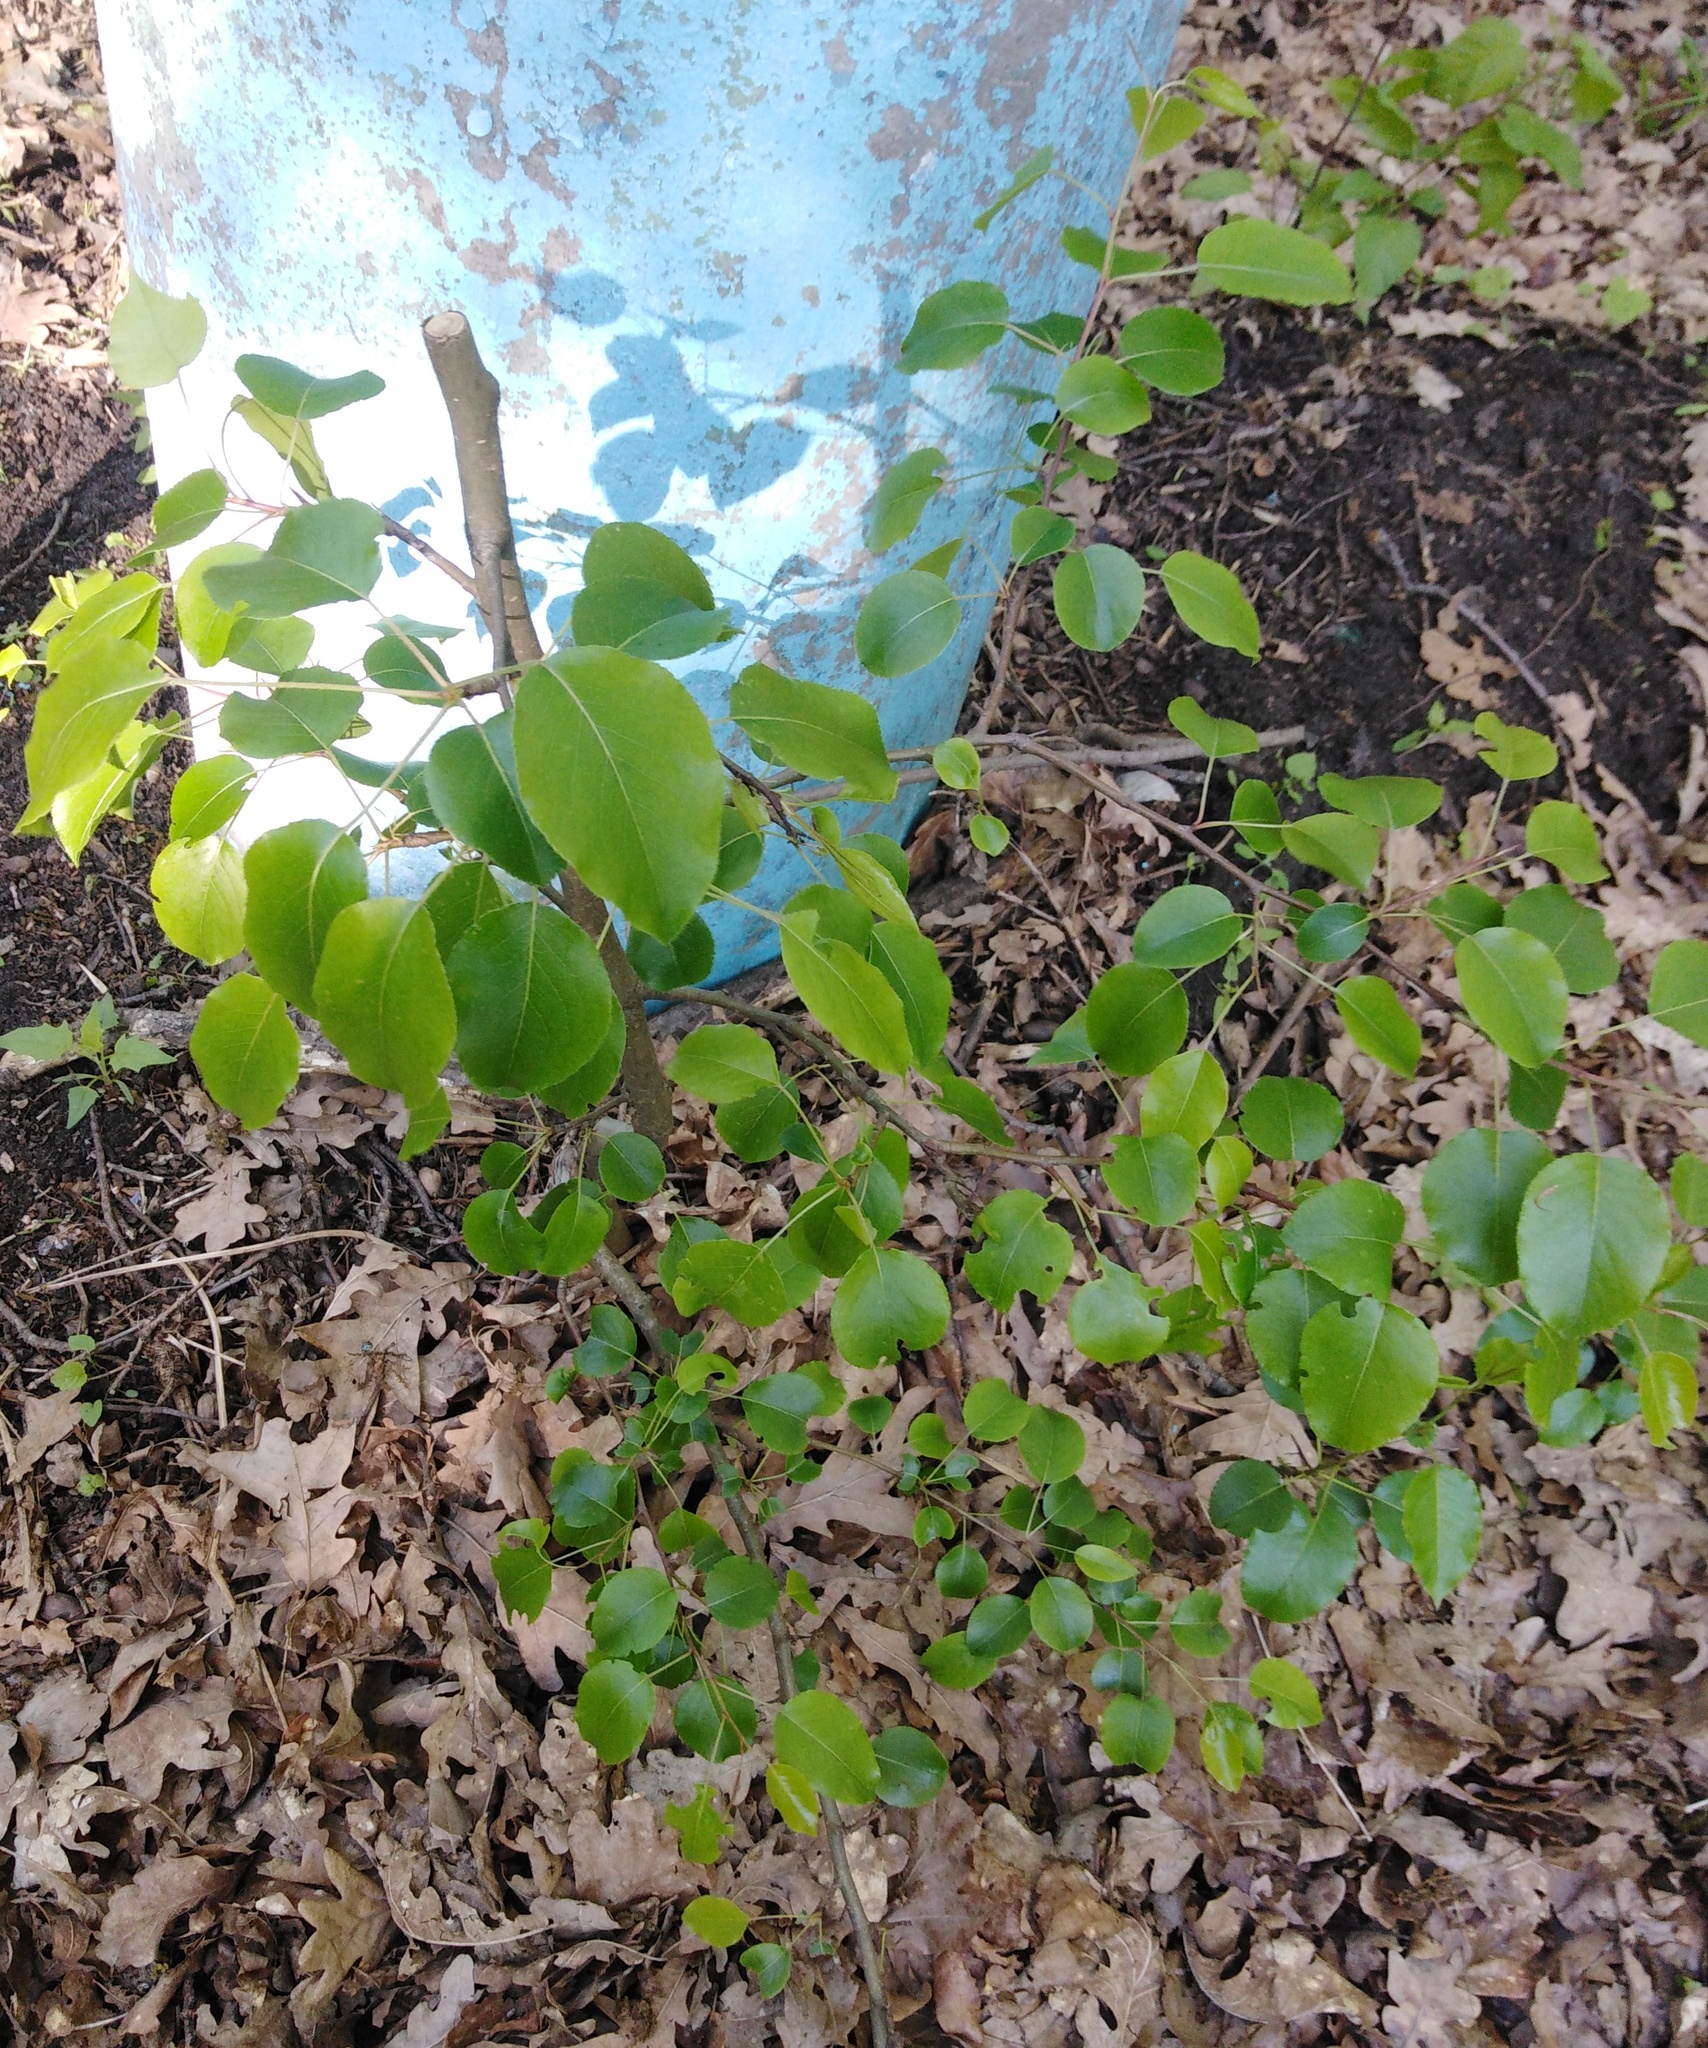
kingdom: Plantae
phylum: Tracheophyta
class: Magnoliopsida
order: Rosales
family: Rosaceae
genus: Pyrus
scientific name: Pyrus communis
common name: Pear
